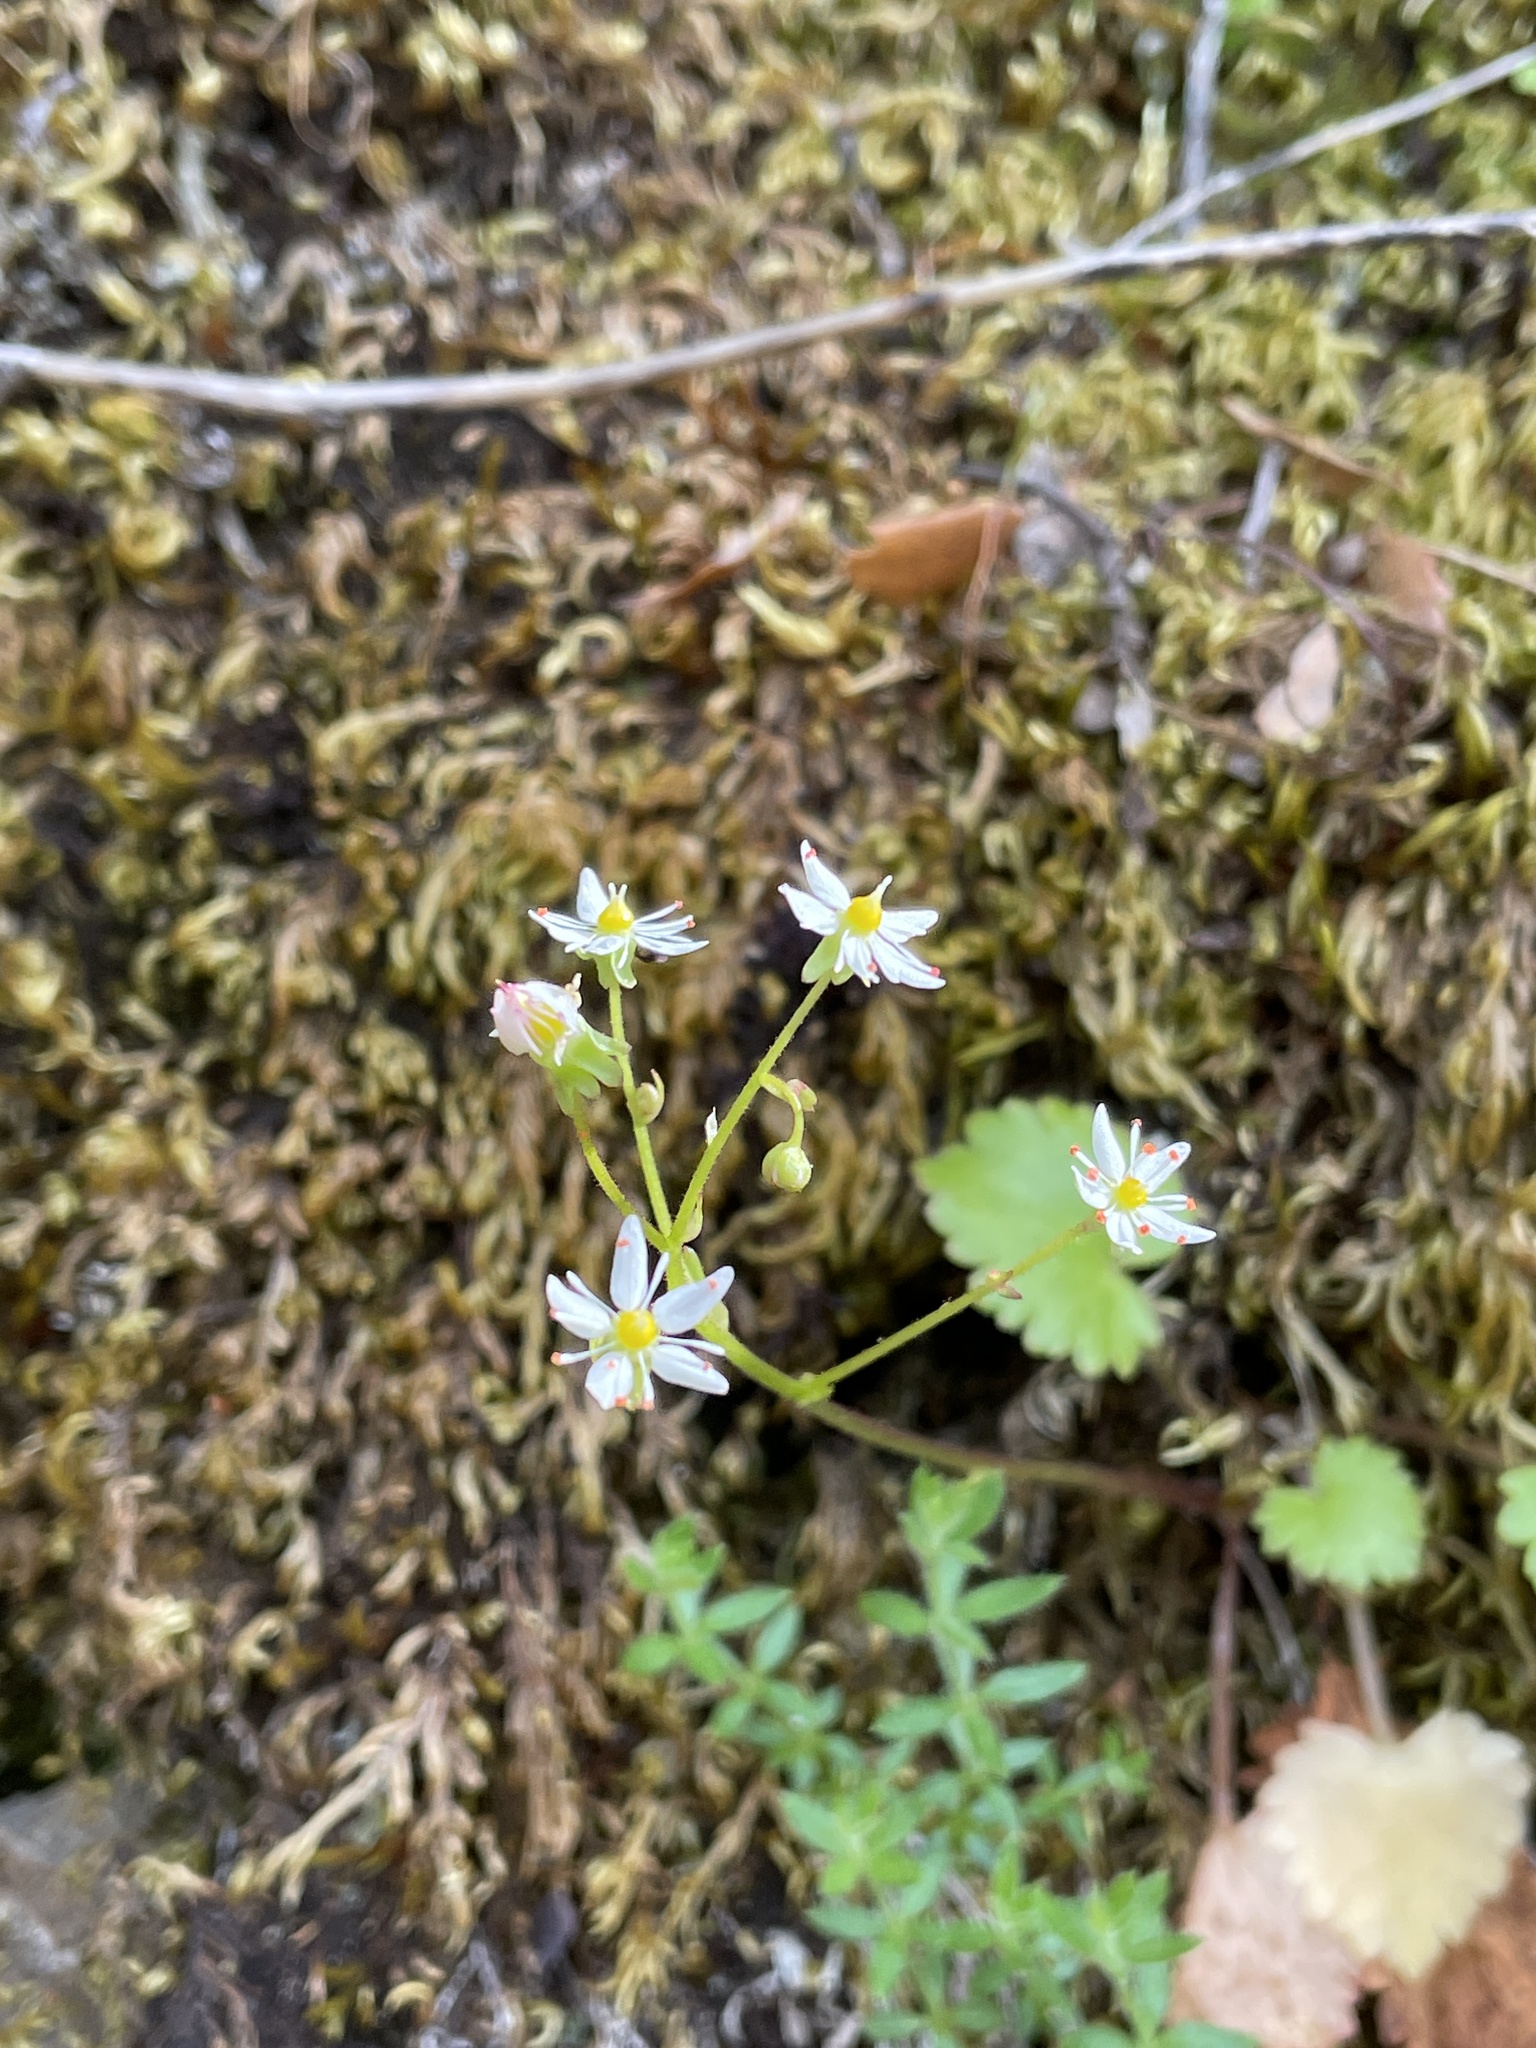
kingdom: Plantae
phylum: Tracheophyta
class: Magnoliopsida
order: Saxifragales
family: Saxifragaceae
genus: Micranthes
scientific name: Micranthes mertensiana
